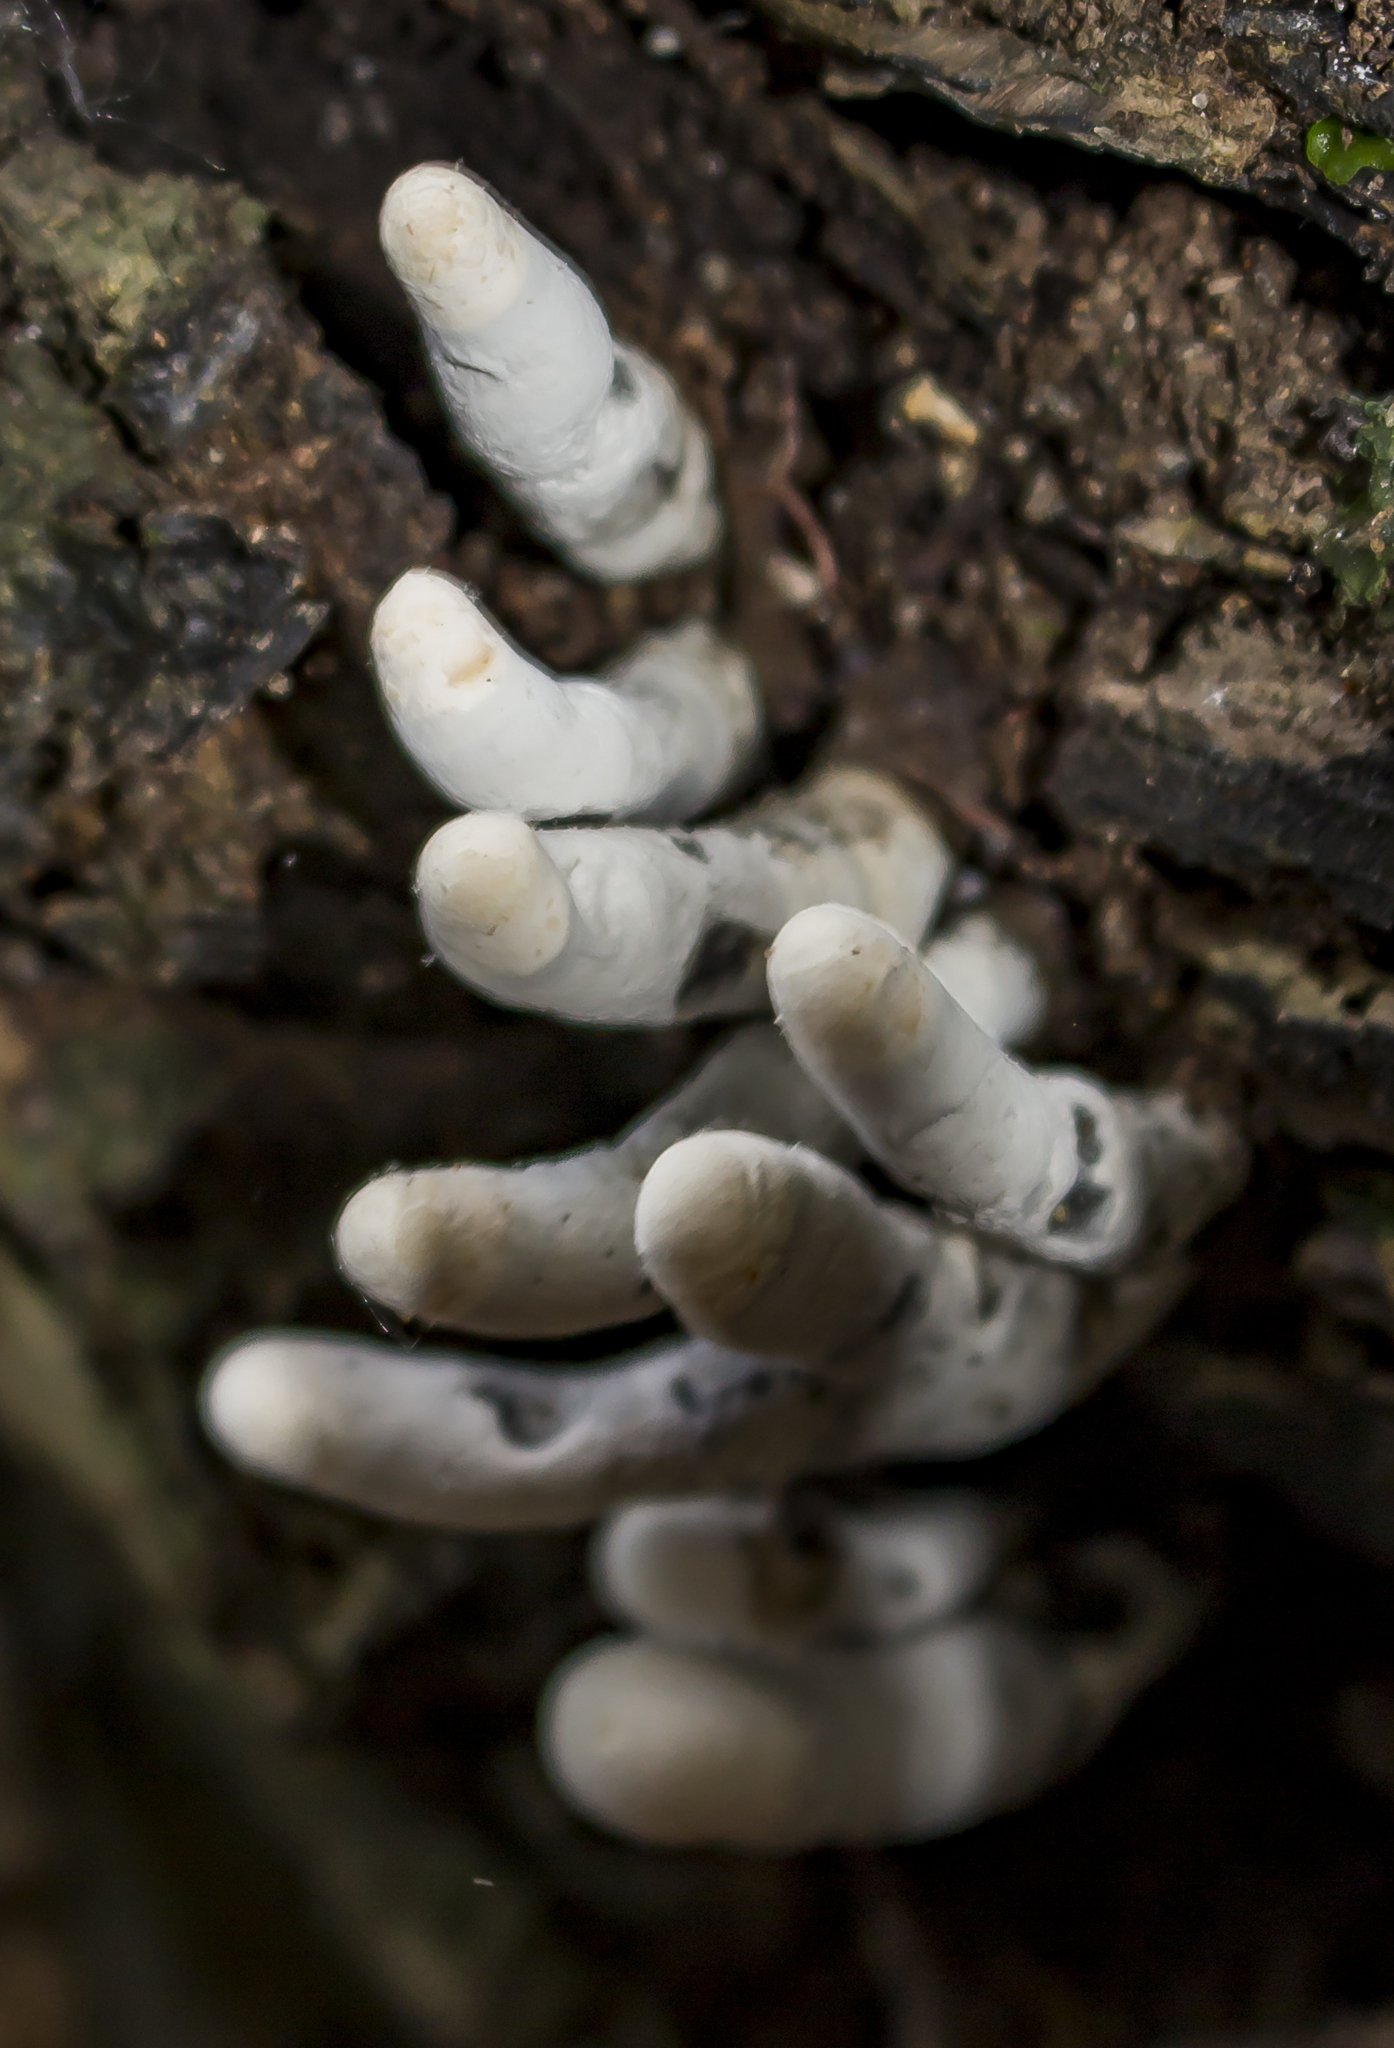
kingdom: Fungi
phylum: Ascomycota
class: Sordariomycetes
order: Xylariales
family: Xylariaceae
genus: Xylaria
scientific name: Xylaria polymorpha
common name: Dead man's fingers
